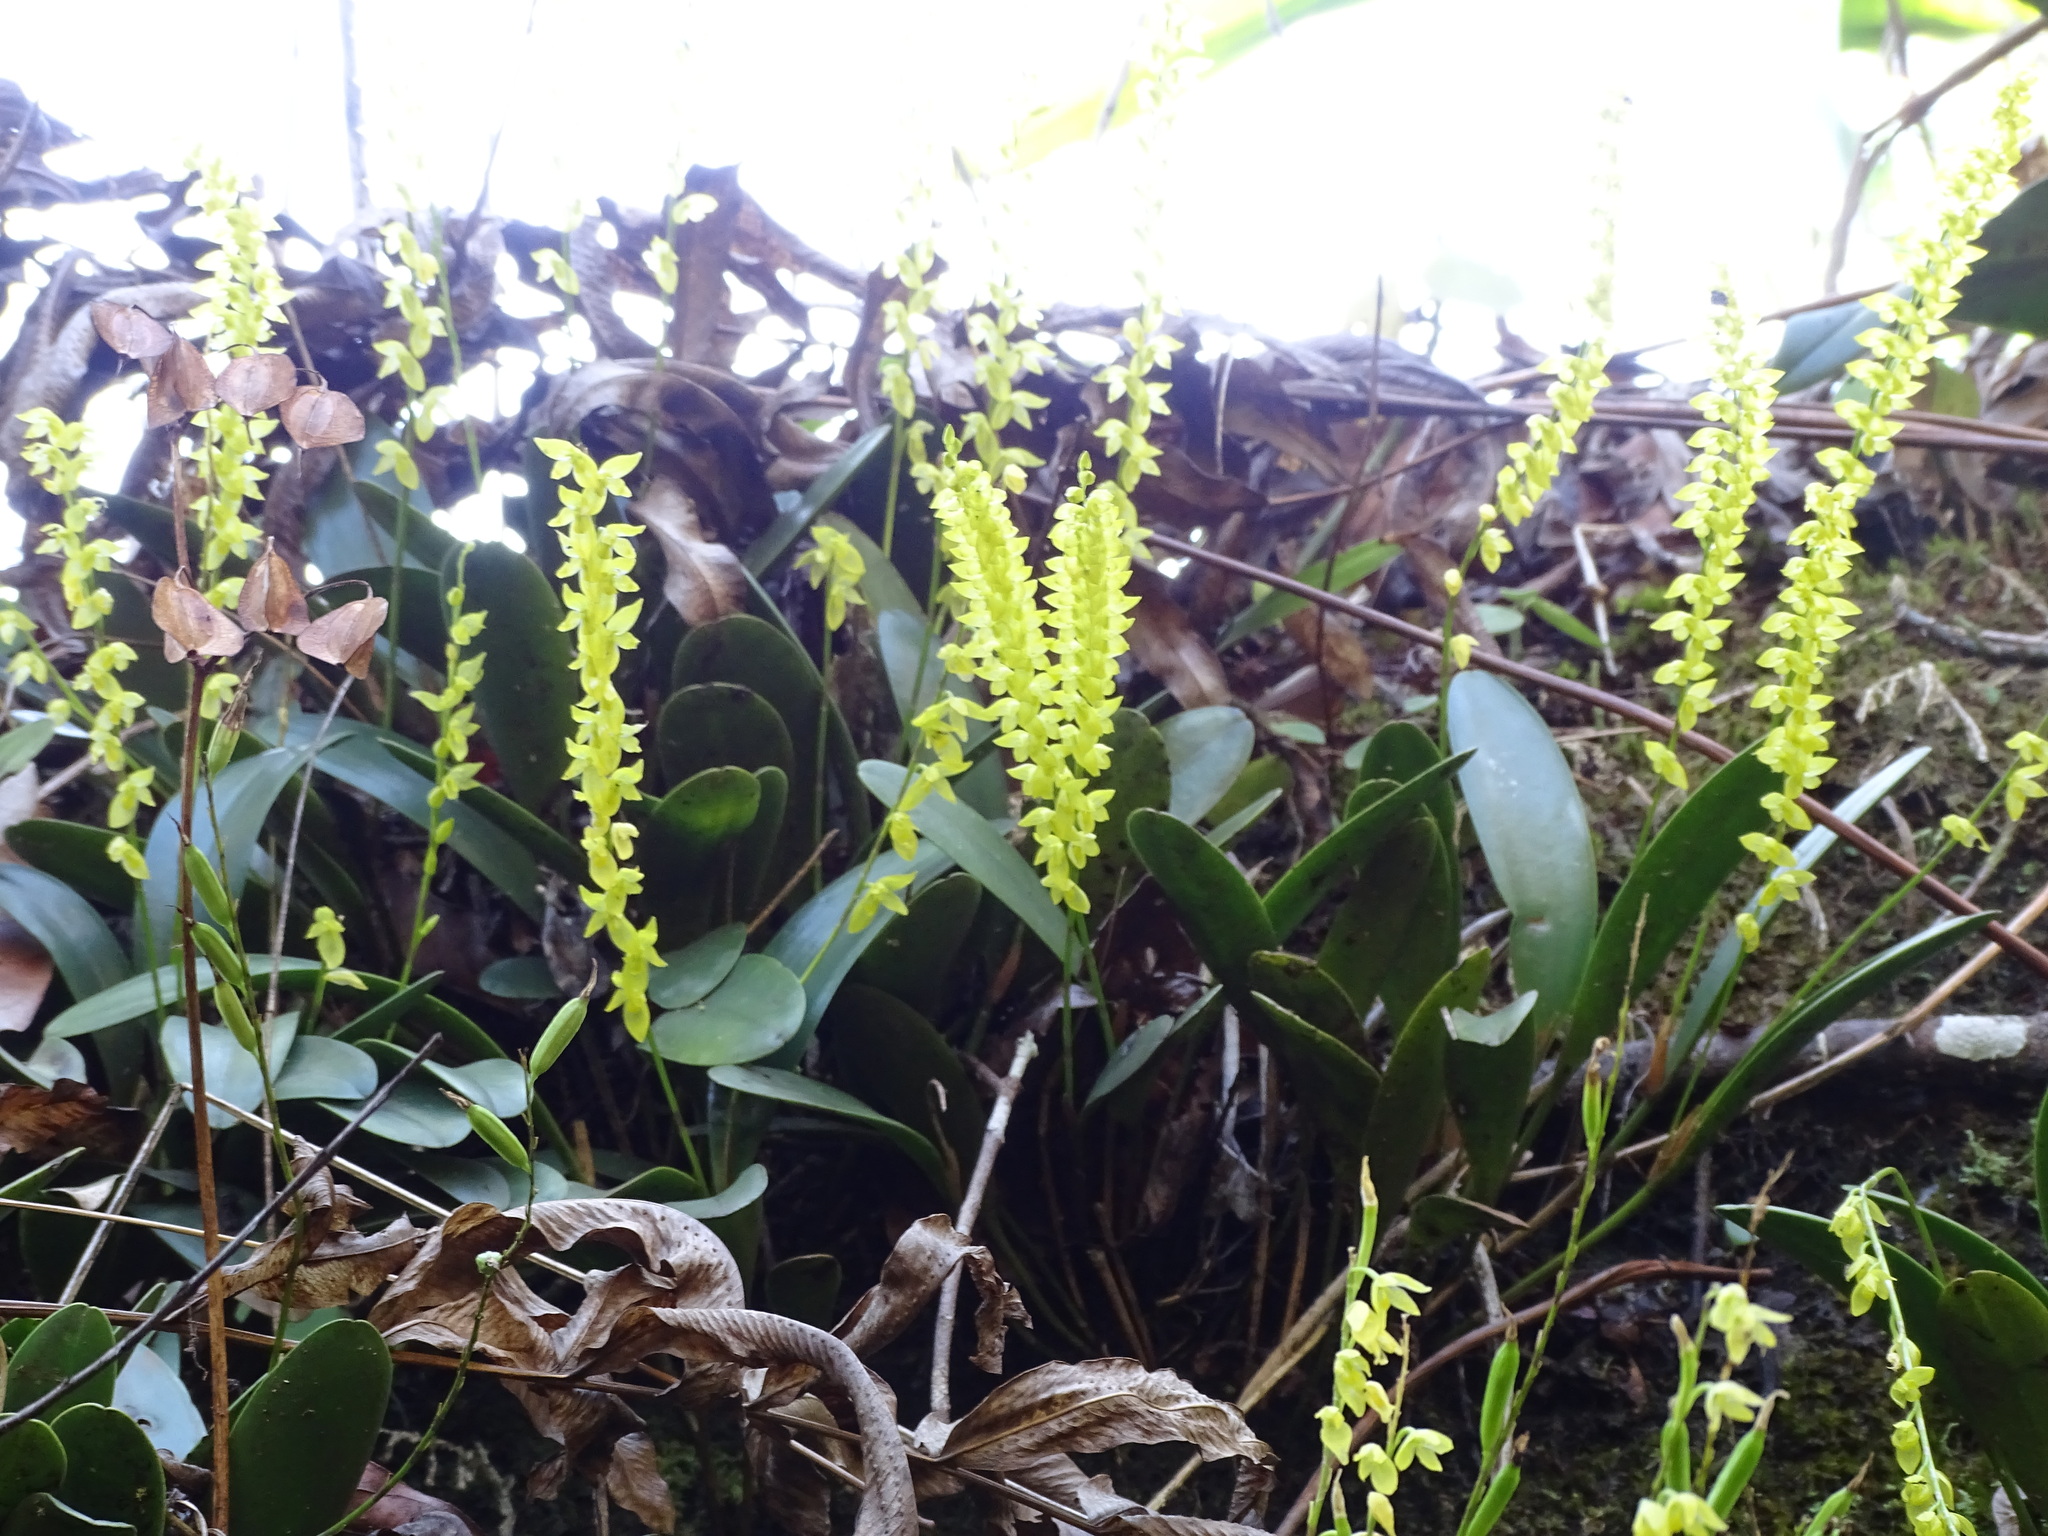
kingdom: Plantae
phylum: Tracheophyta
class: Liliopsida
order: Asparagales
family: Orchidaceae
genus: Pleurothallis
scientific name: Pleurothallis quadrifida
